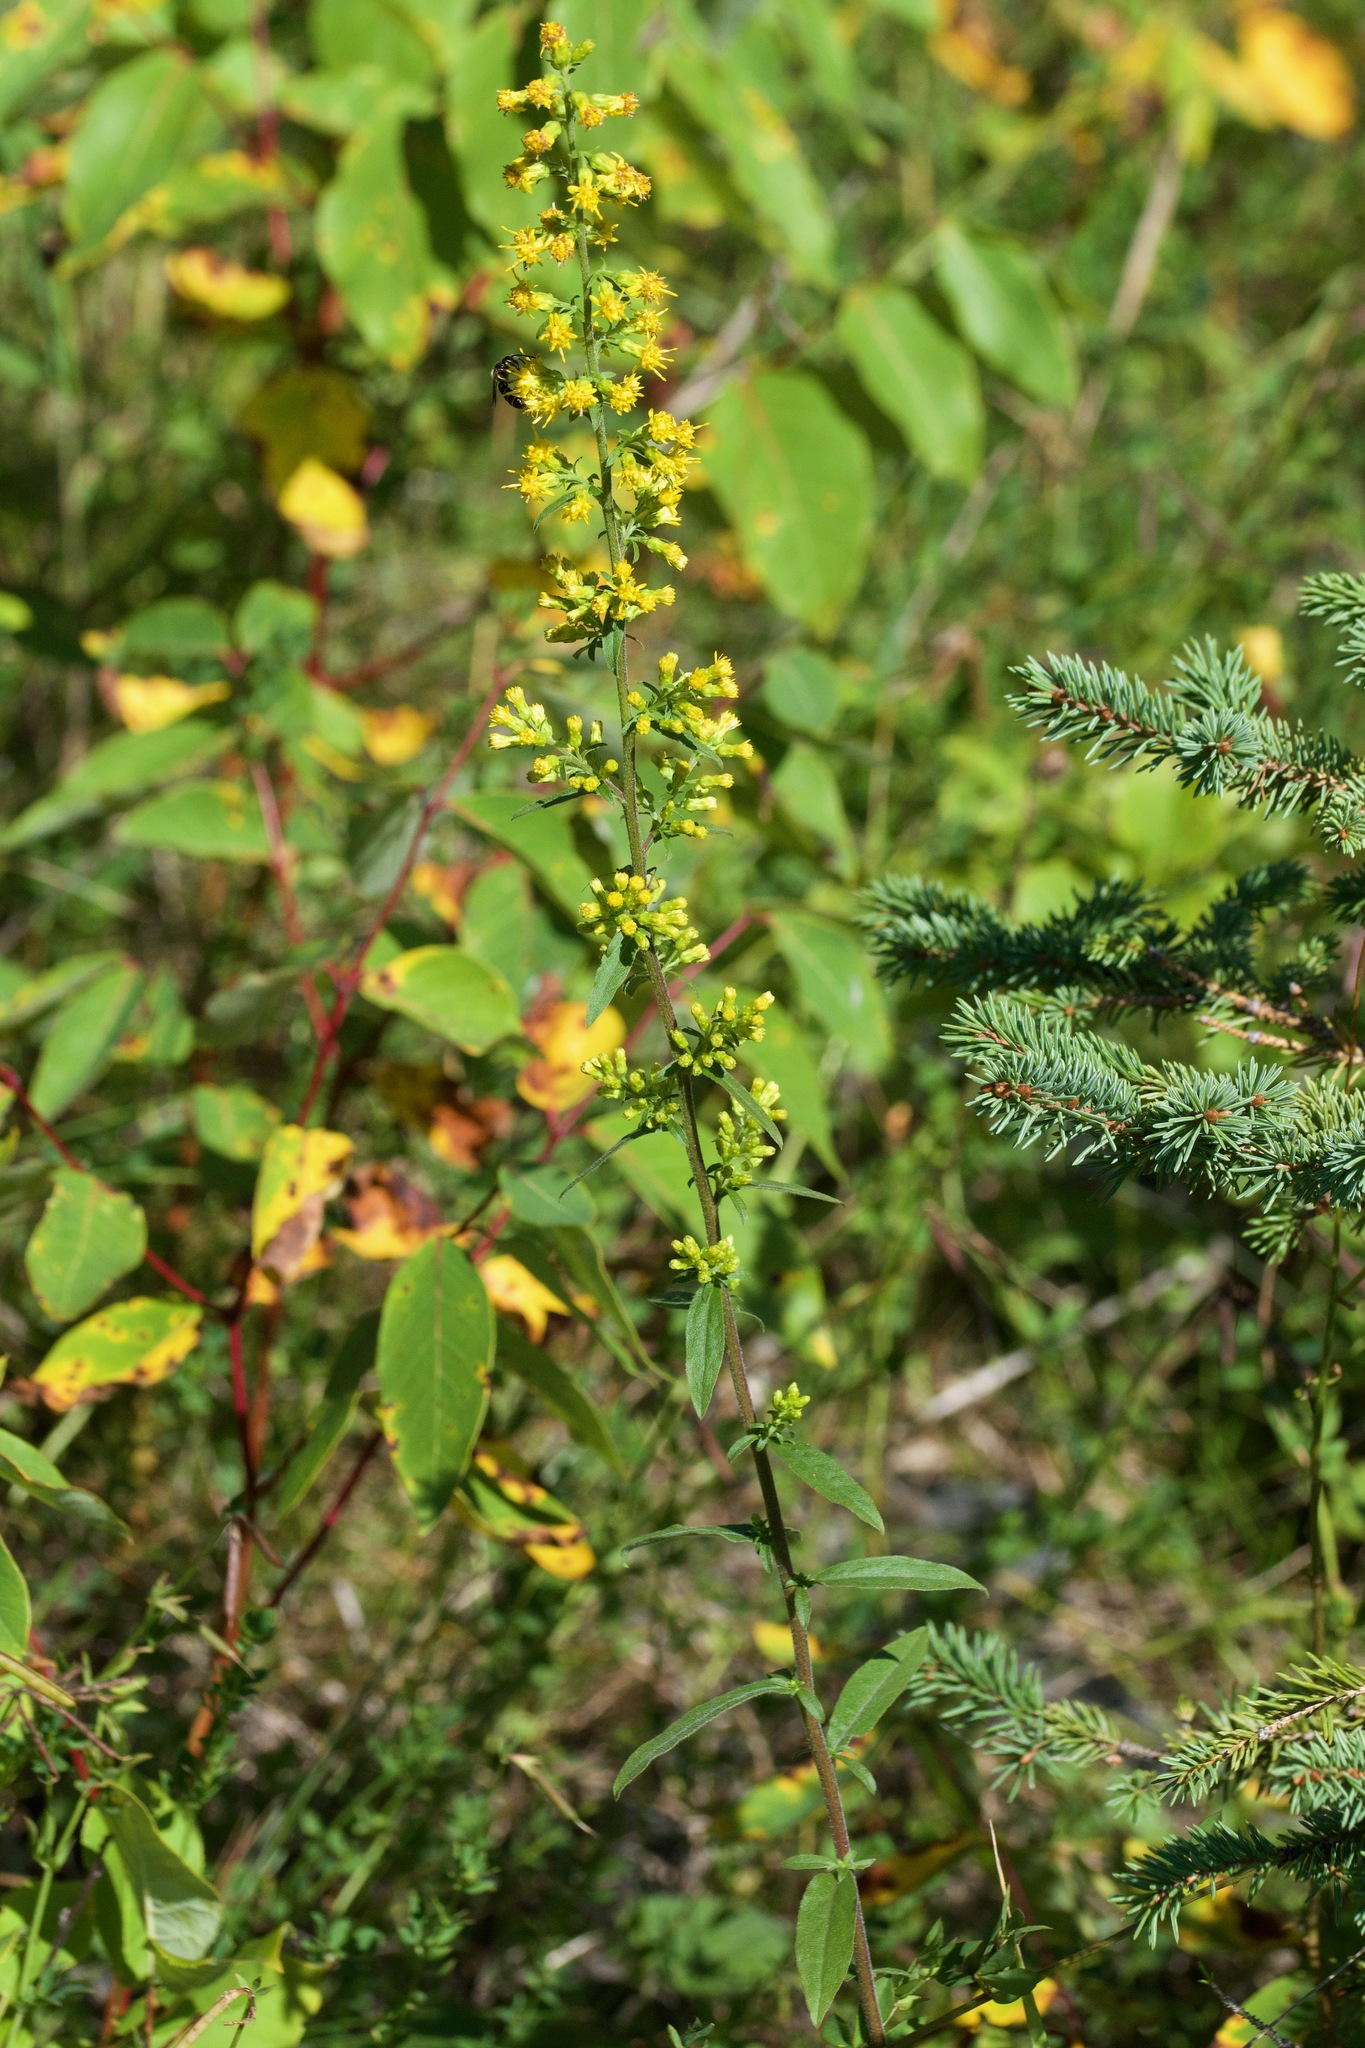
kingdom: Plantae
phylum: Tracheophyta
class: Magnoliopsida
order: Asterales
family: Asteraceae
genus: Solidago
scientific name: Solidago hispida
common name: Hairy goldenrod
